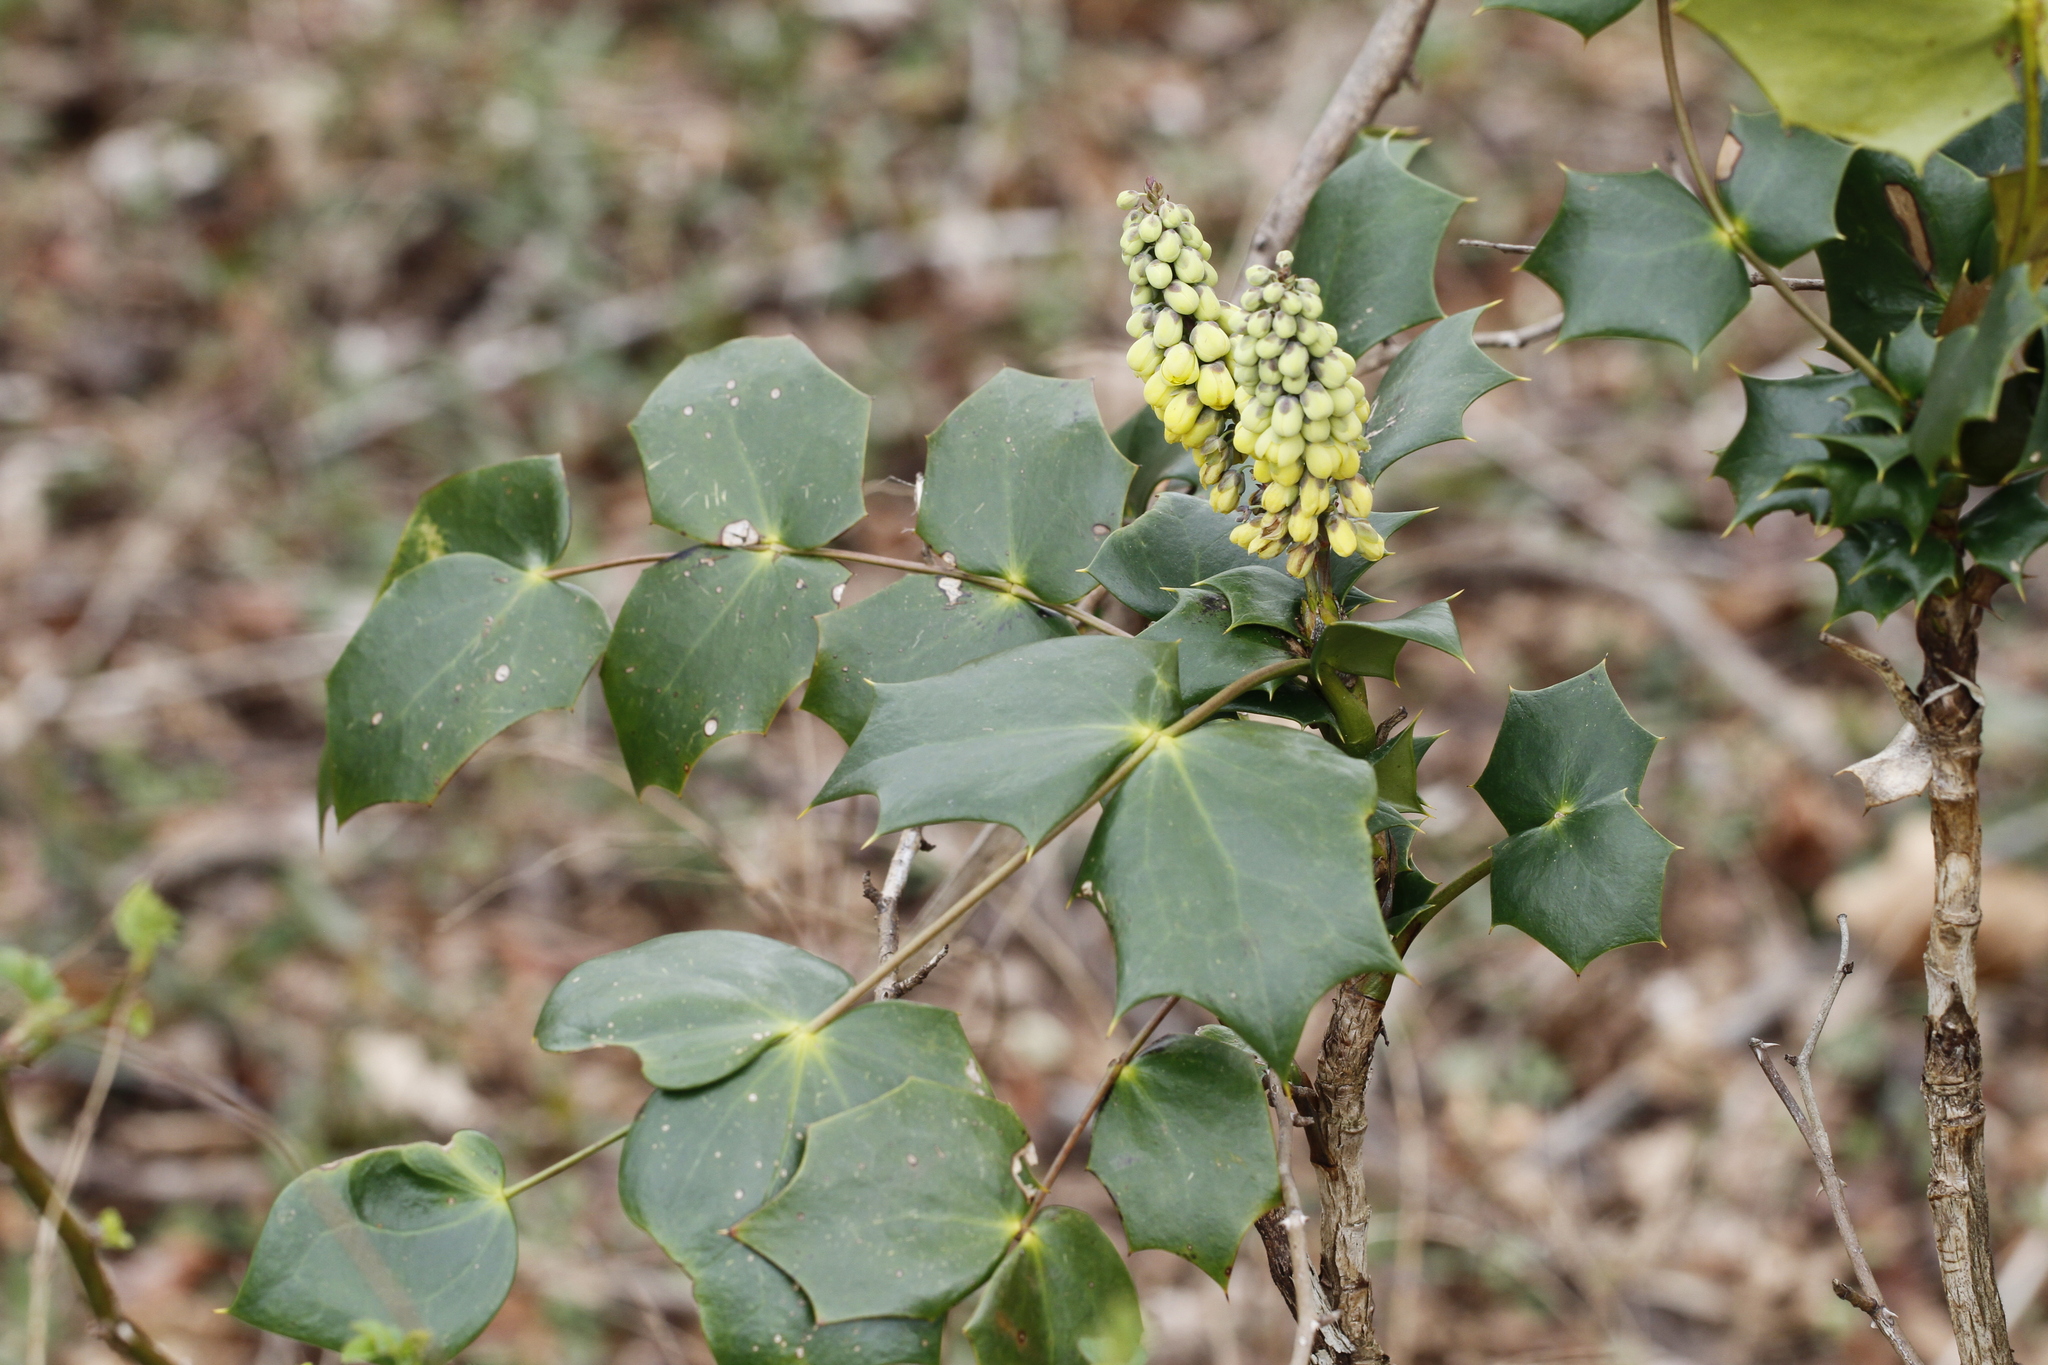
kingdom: Plantae
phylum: Tracheophyta
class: Magnoliopsida
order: Ranunculales
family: Berberidaceae
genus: Mahonia
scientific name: Mahonia bealei
